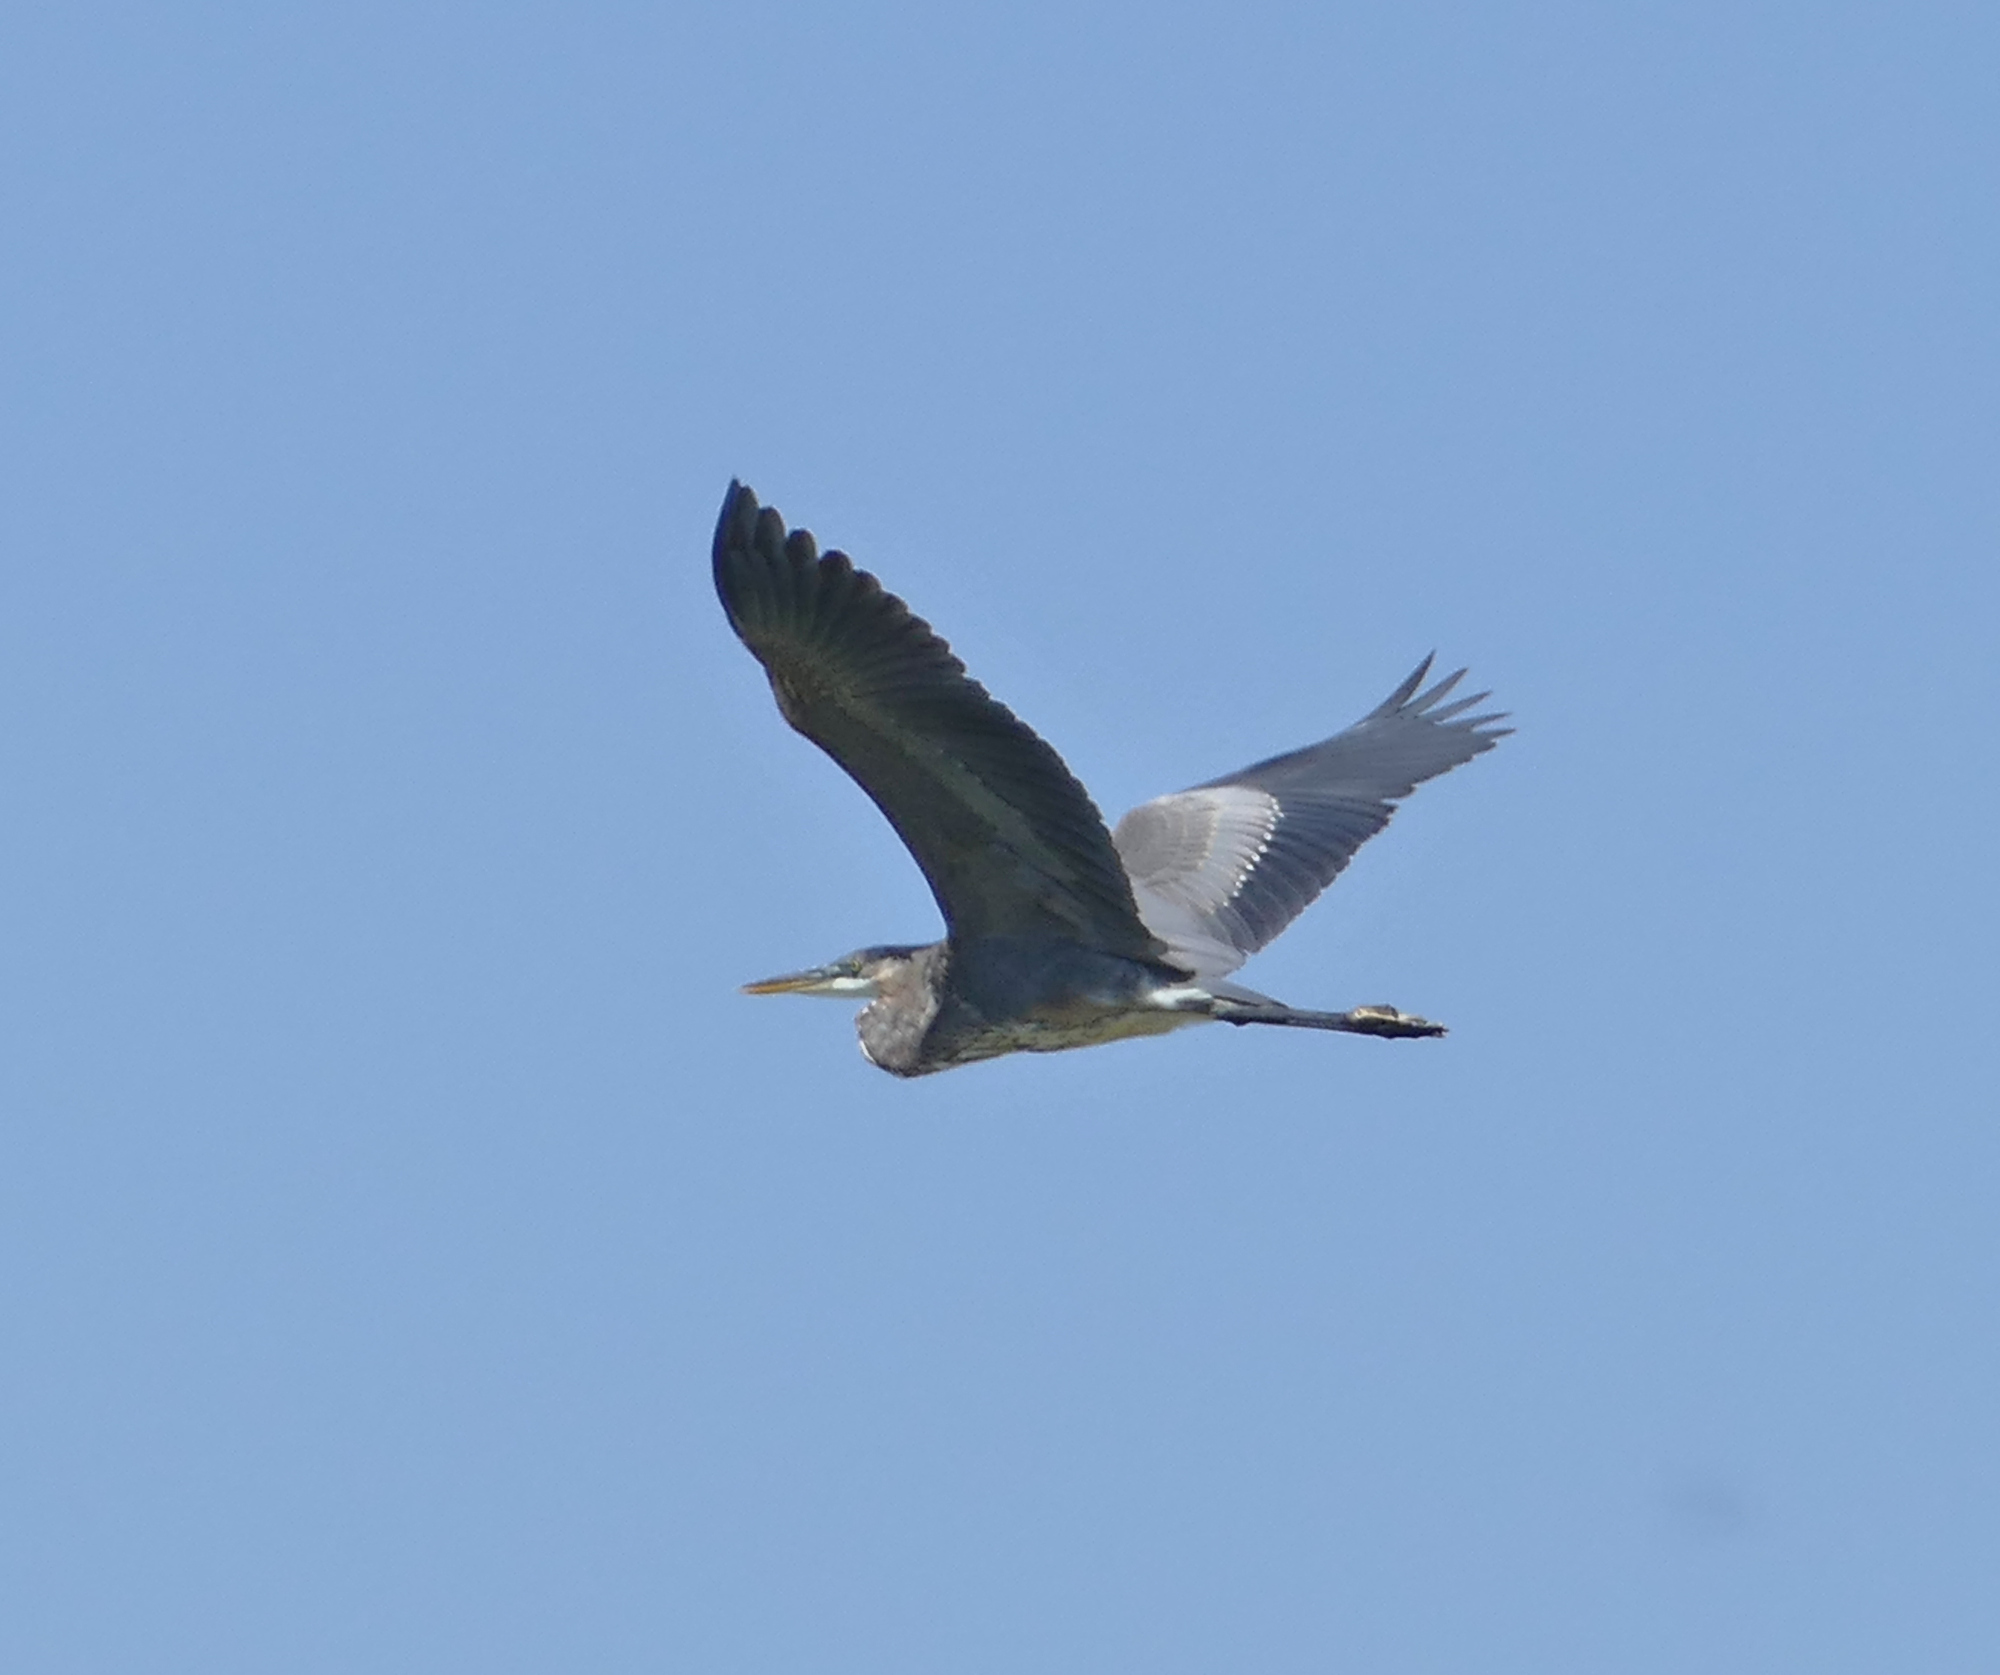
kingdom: Animalia
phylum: Chordata
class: Aves
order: Pelecaniformes
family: Ardeidae
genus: Ardea
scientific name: Ardea herodias
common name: Great blue heron
